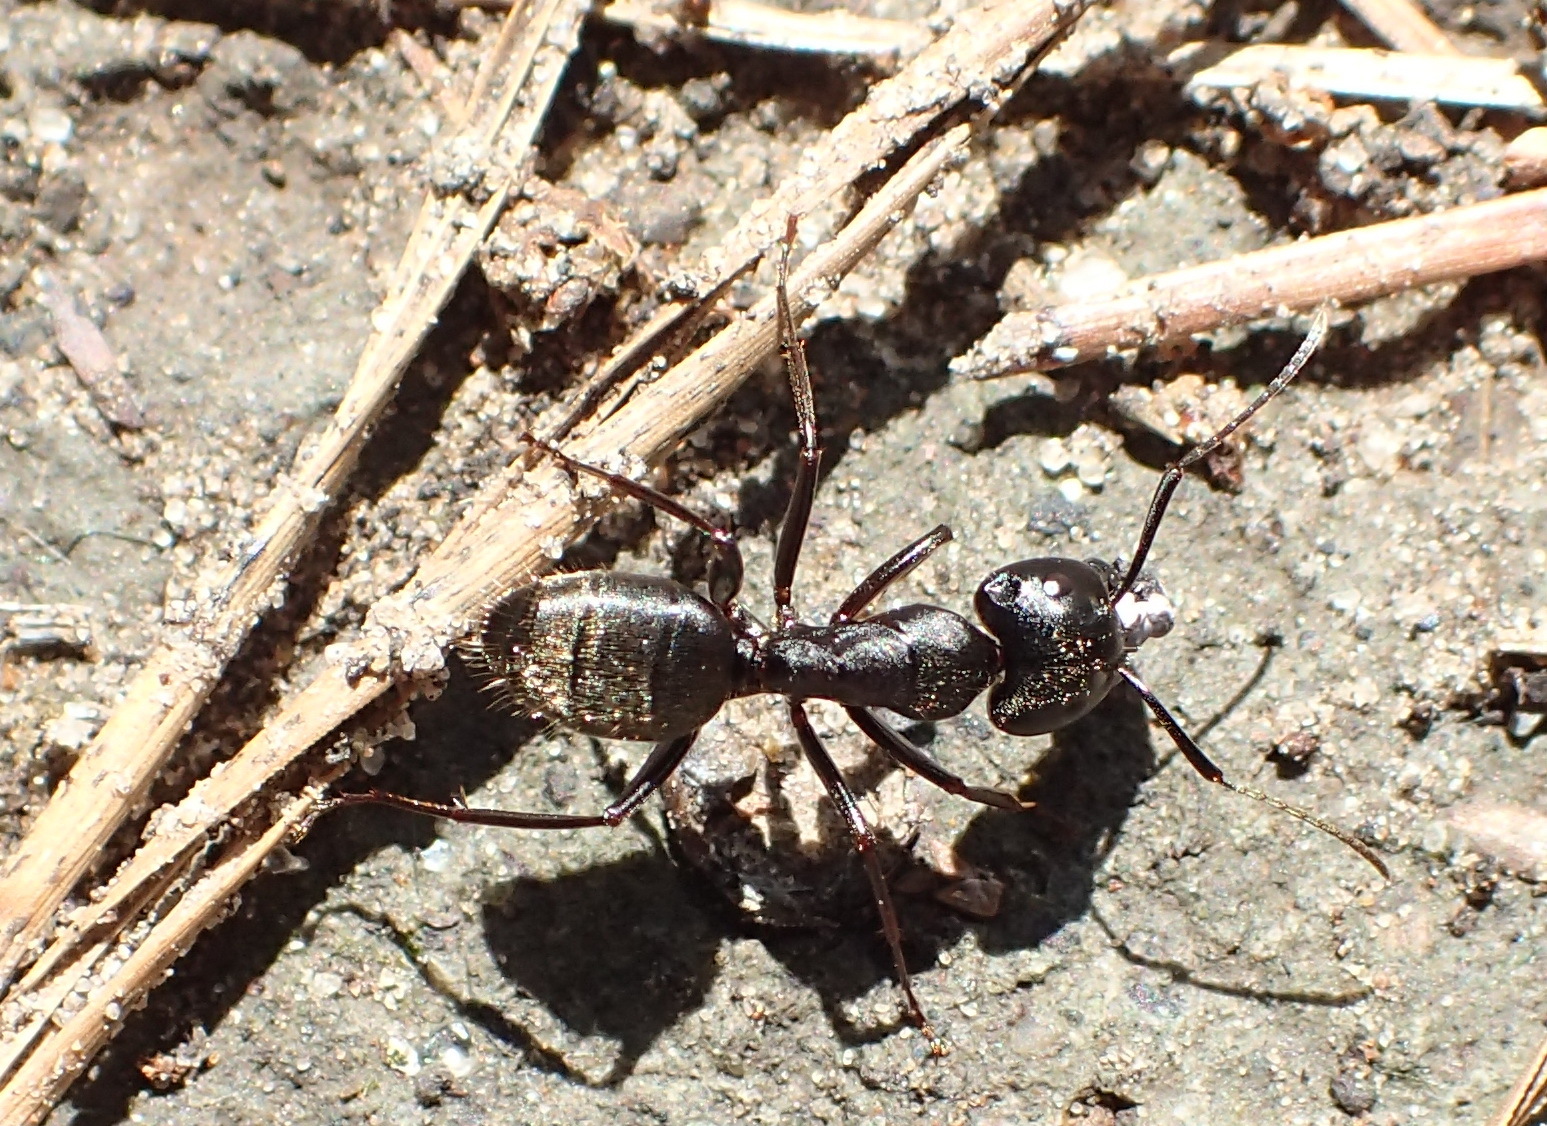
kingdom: Animalia
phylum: Arthropoda
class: Insecta
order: Hymenoptera
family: Formicidae
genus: Camponotus
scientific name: Camponotus pennsylvanicus
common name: Black carpenter ant
